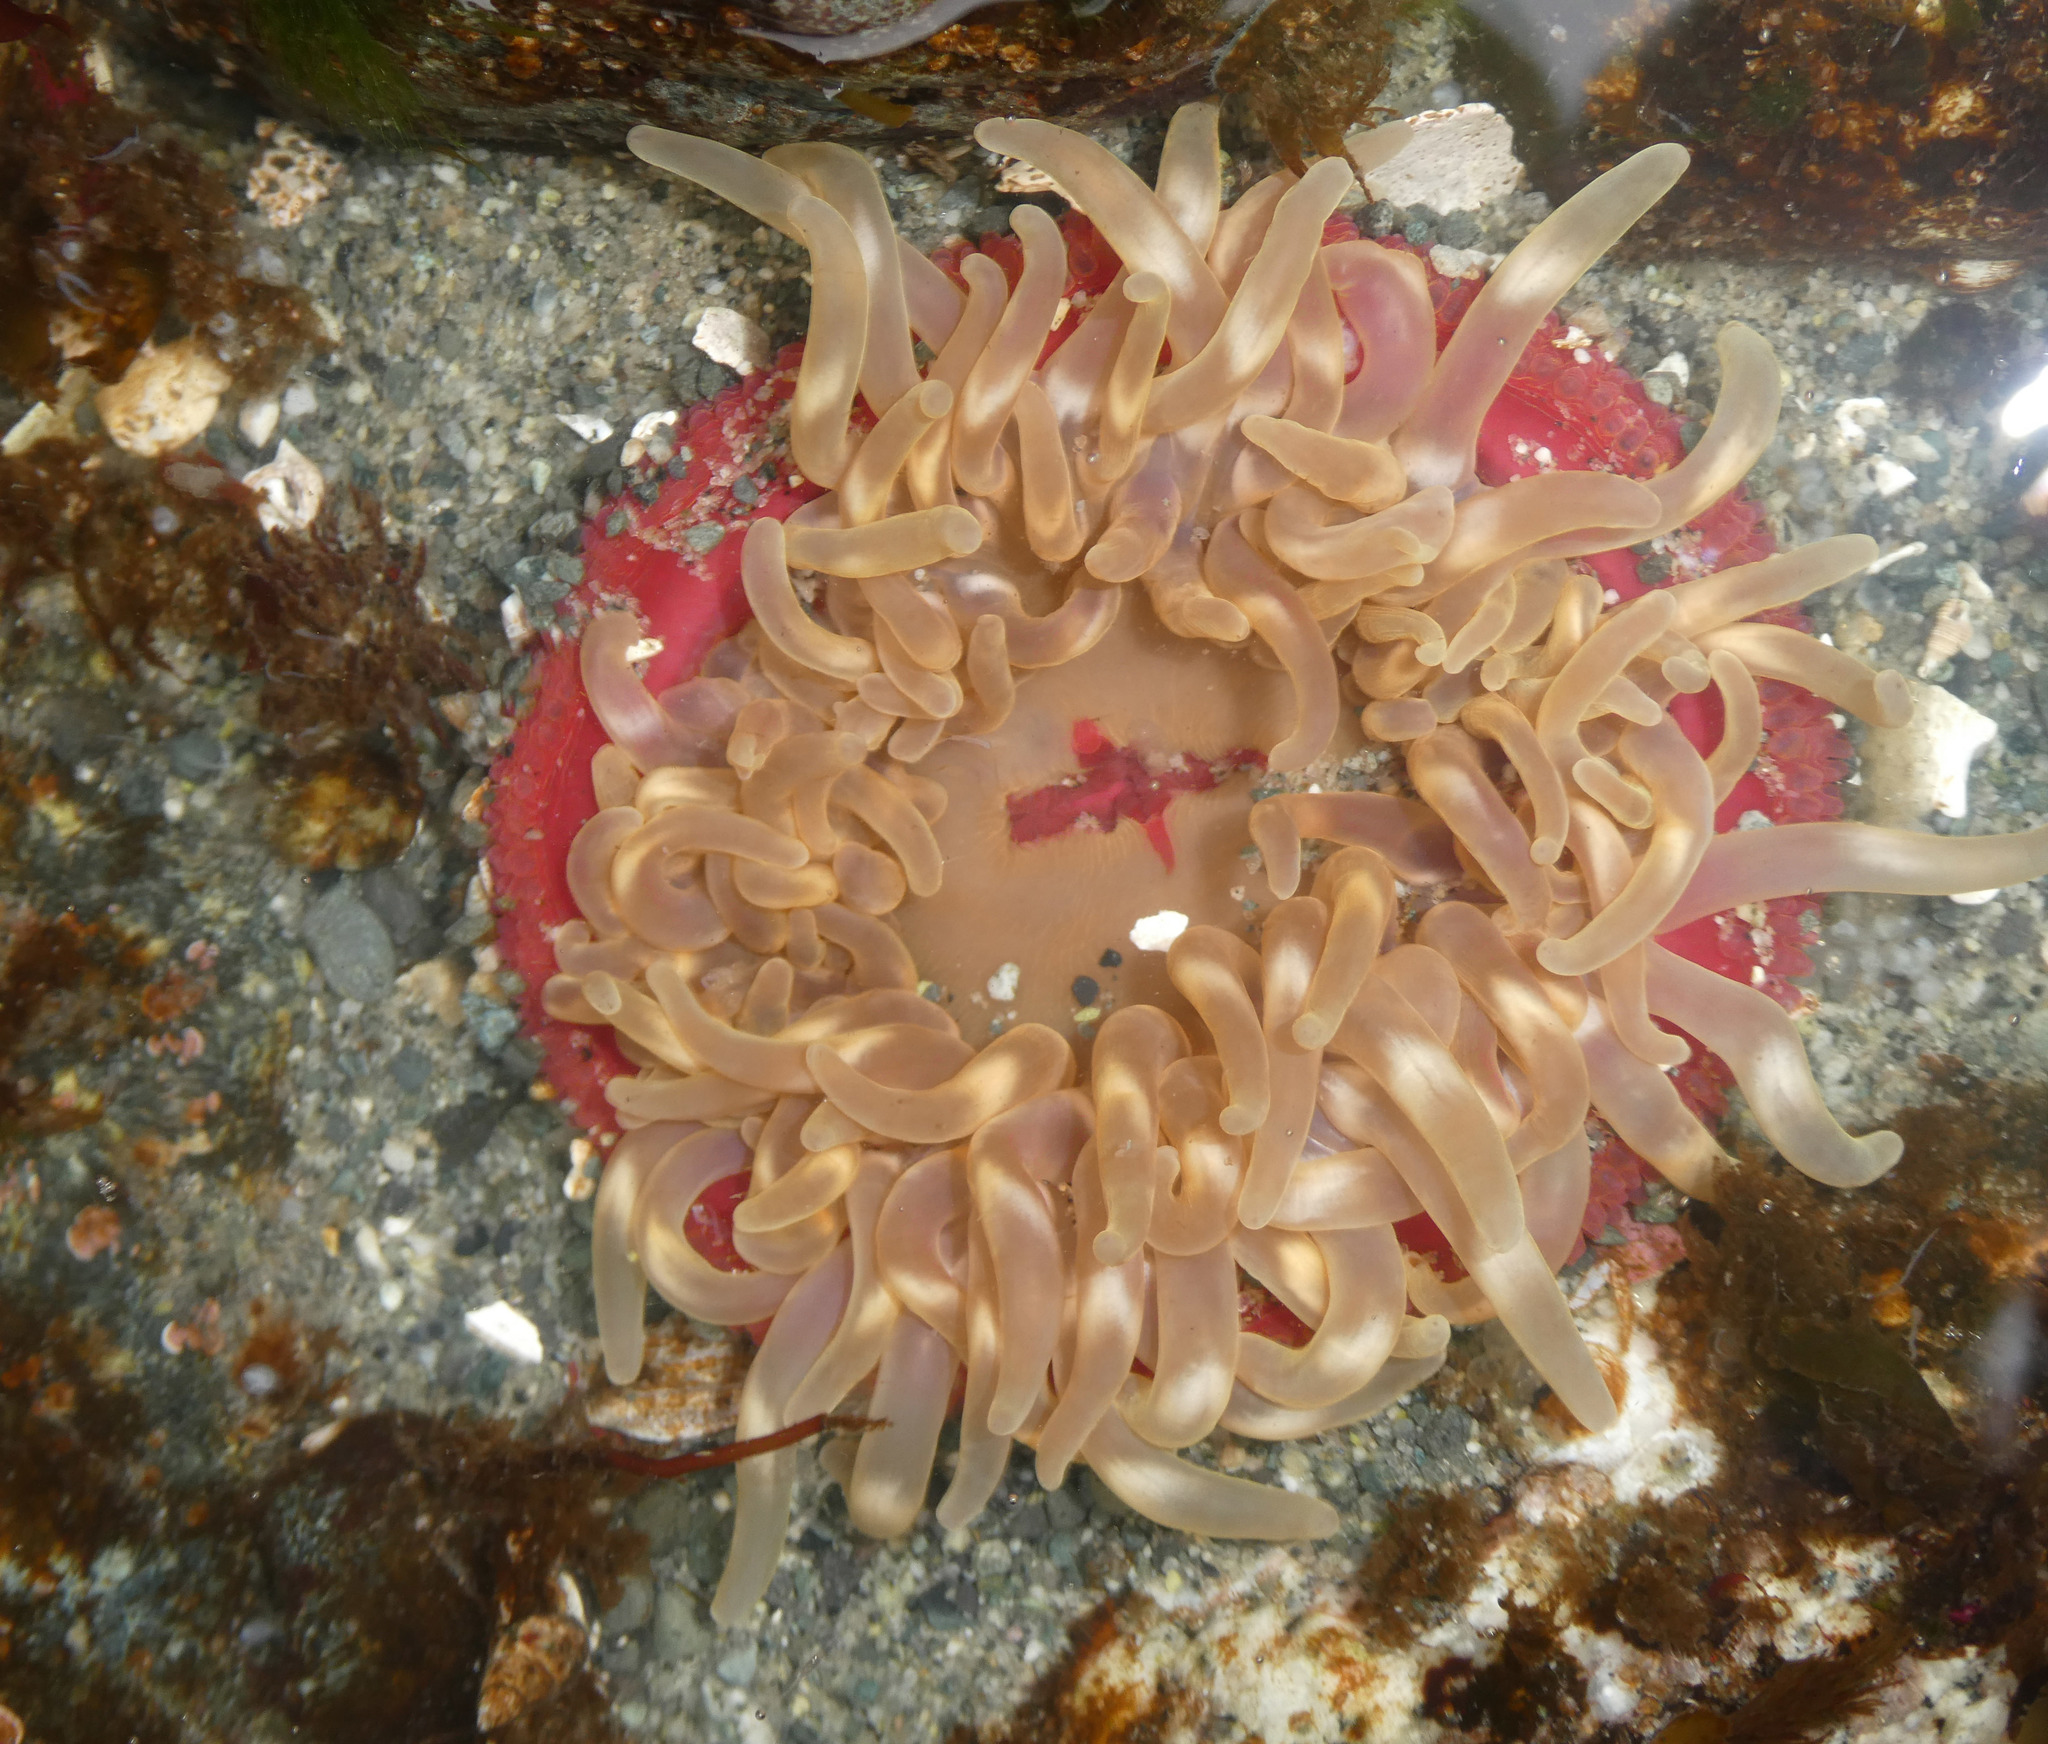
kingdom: Animalia
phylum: Cnidaria
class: Anthozoa
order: Actiniaria
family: Actiniidae
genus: Urticina
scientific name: Urticina clandestina
